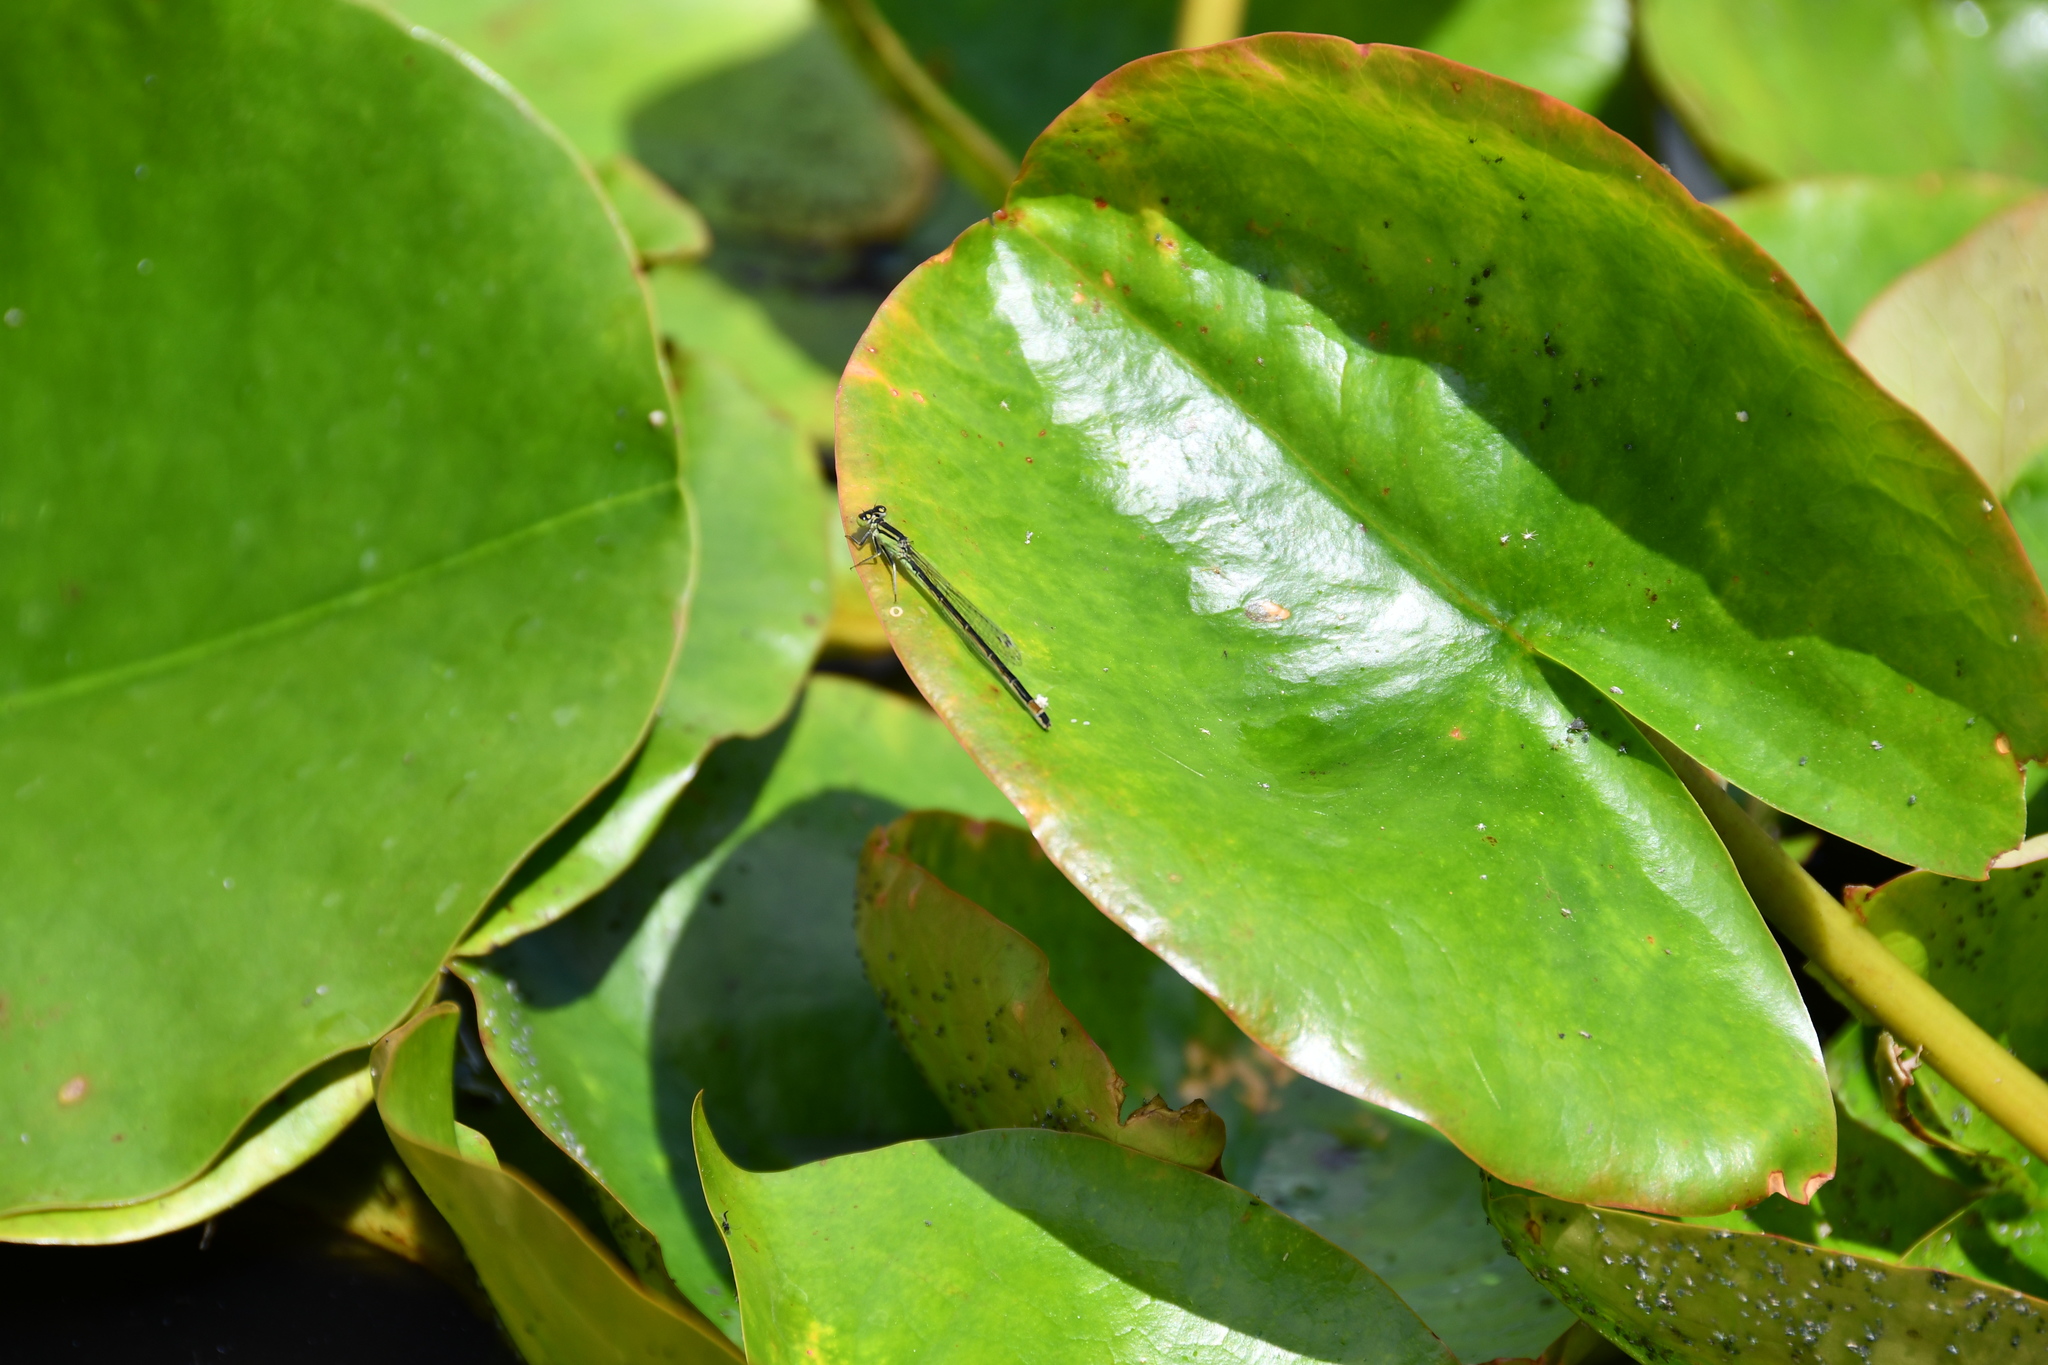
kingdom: Animalia
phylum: Arthropoda
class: Insecta
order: Odonata
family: Coenagrionidae
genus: Ischnura
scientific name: Ischnura elegans
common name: Blue-tailed damselfly
